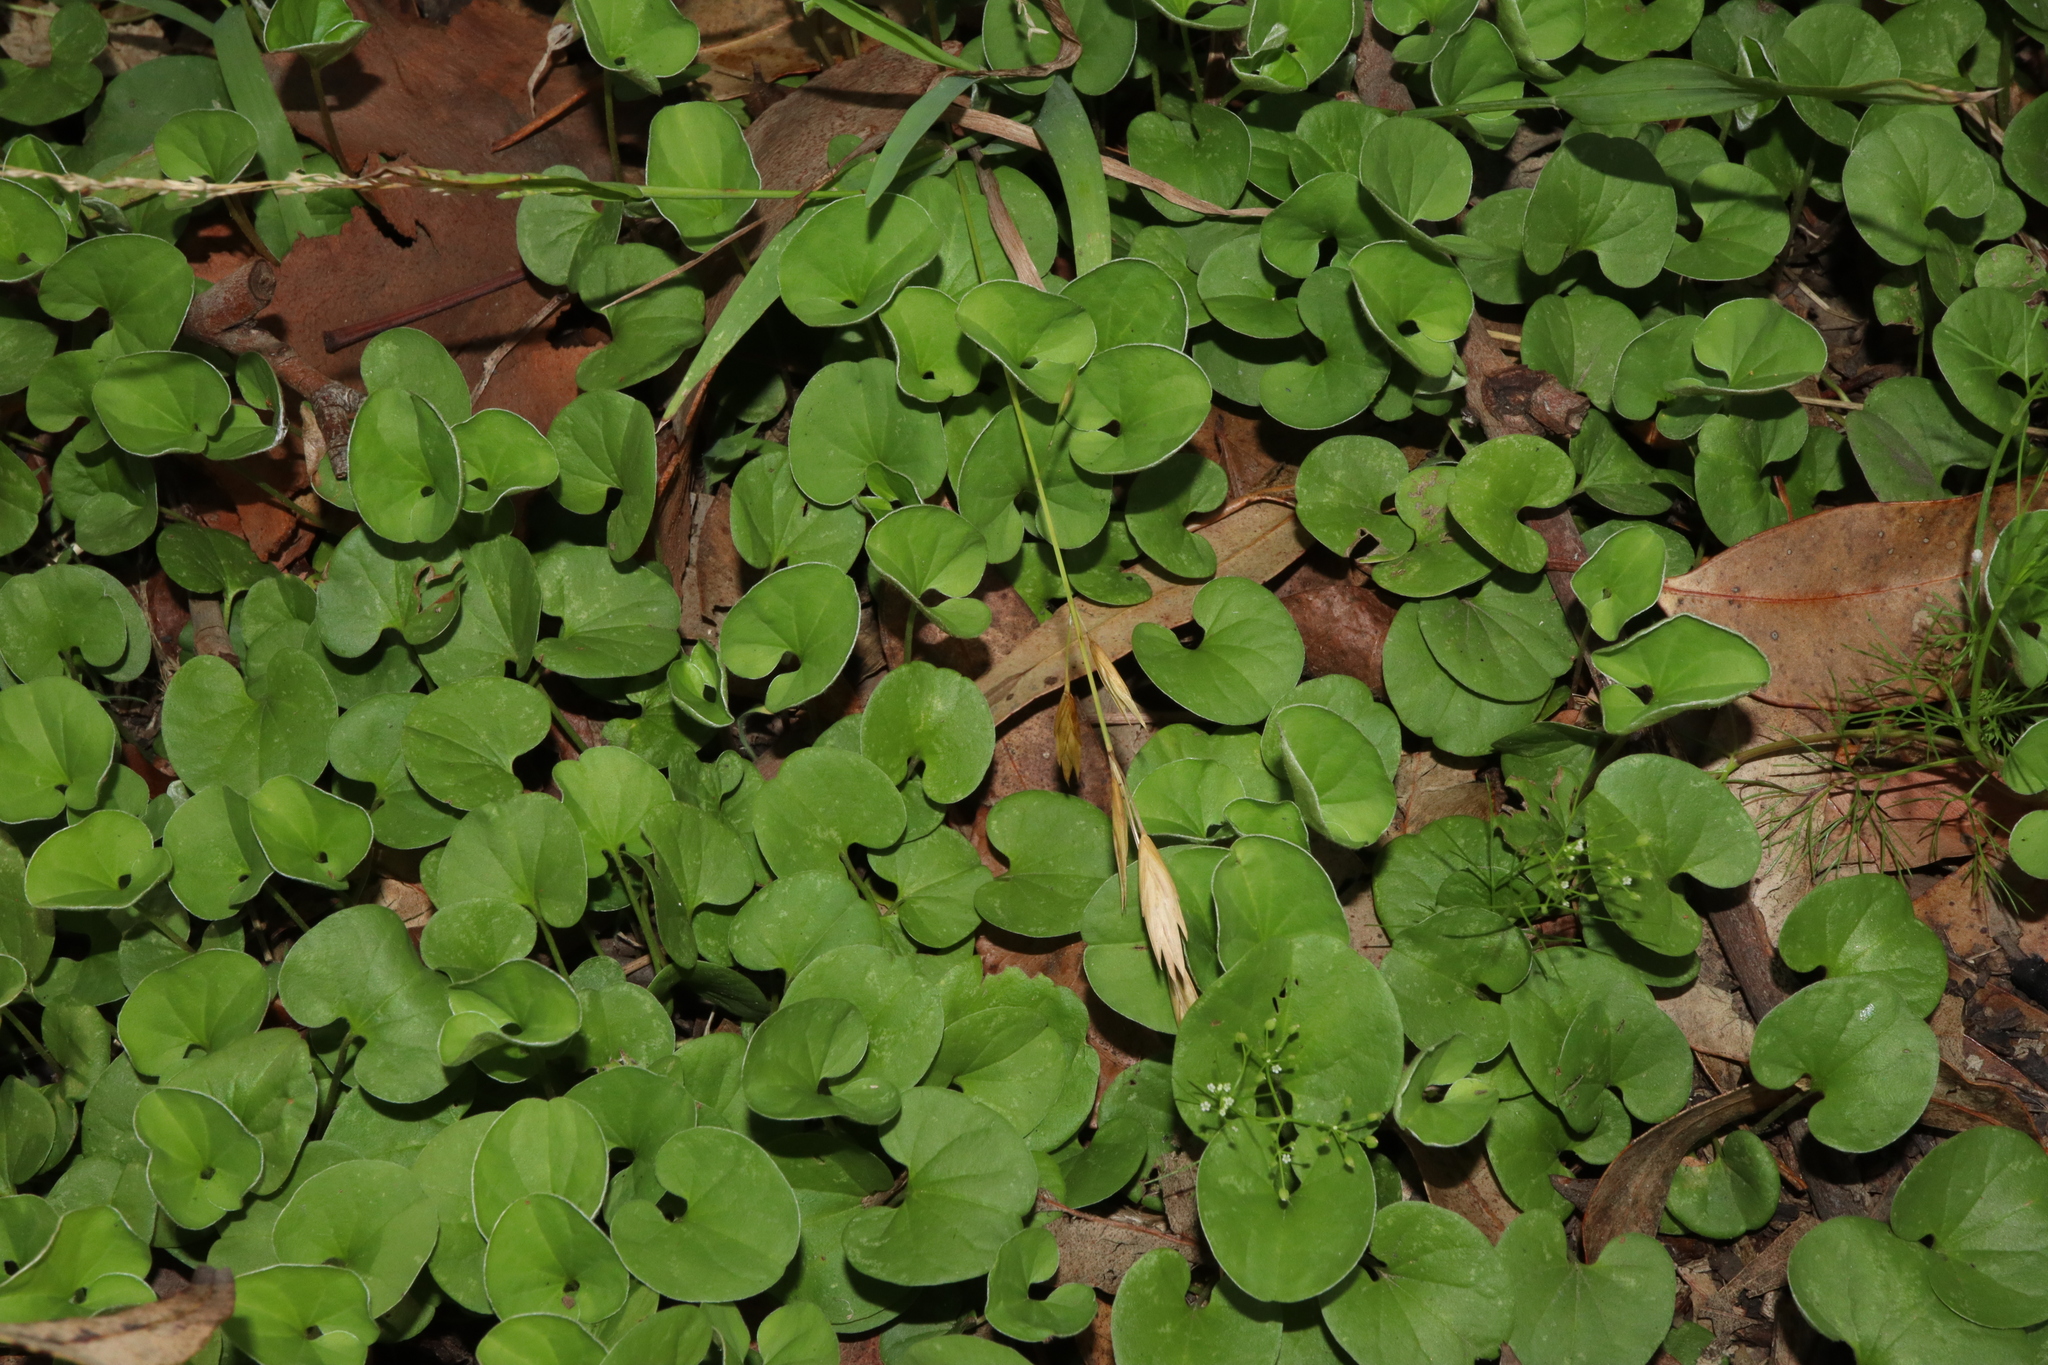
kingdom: Plantae
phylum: Tracheophyta
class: Magnoliopsida
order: Solanales
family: Convolvulaceae
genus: Dichondra
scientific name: Dichondra repens
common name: Kidneyweed
